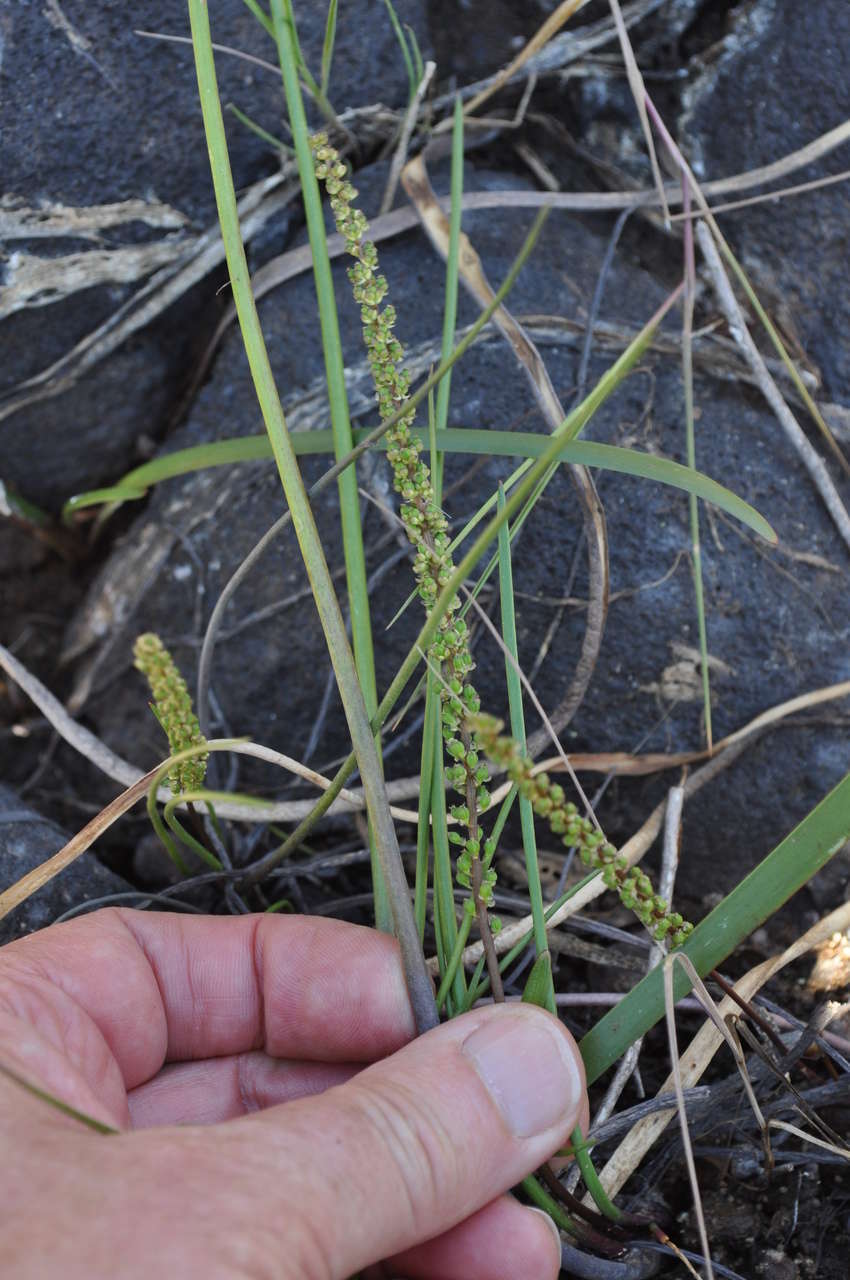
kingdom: Plantae
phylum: Tracheophyta
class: Liliopsida
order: Alismatales
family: Juncaginaceae
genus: Triglochin
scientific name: Triglochin striata
